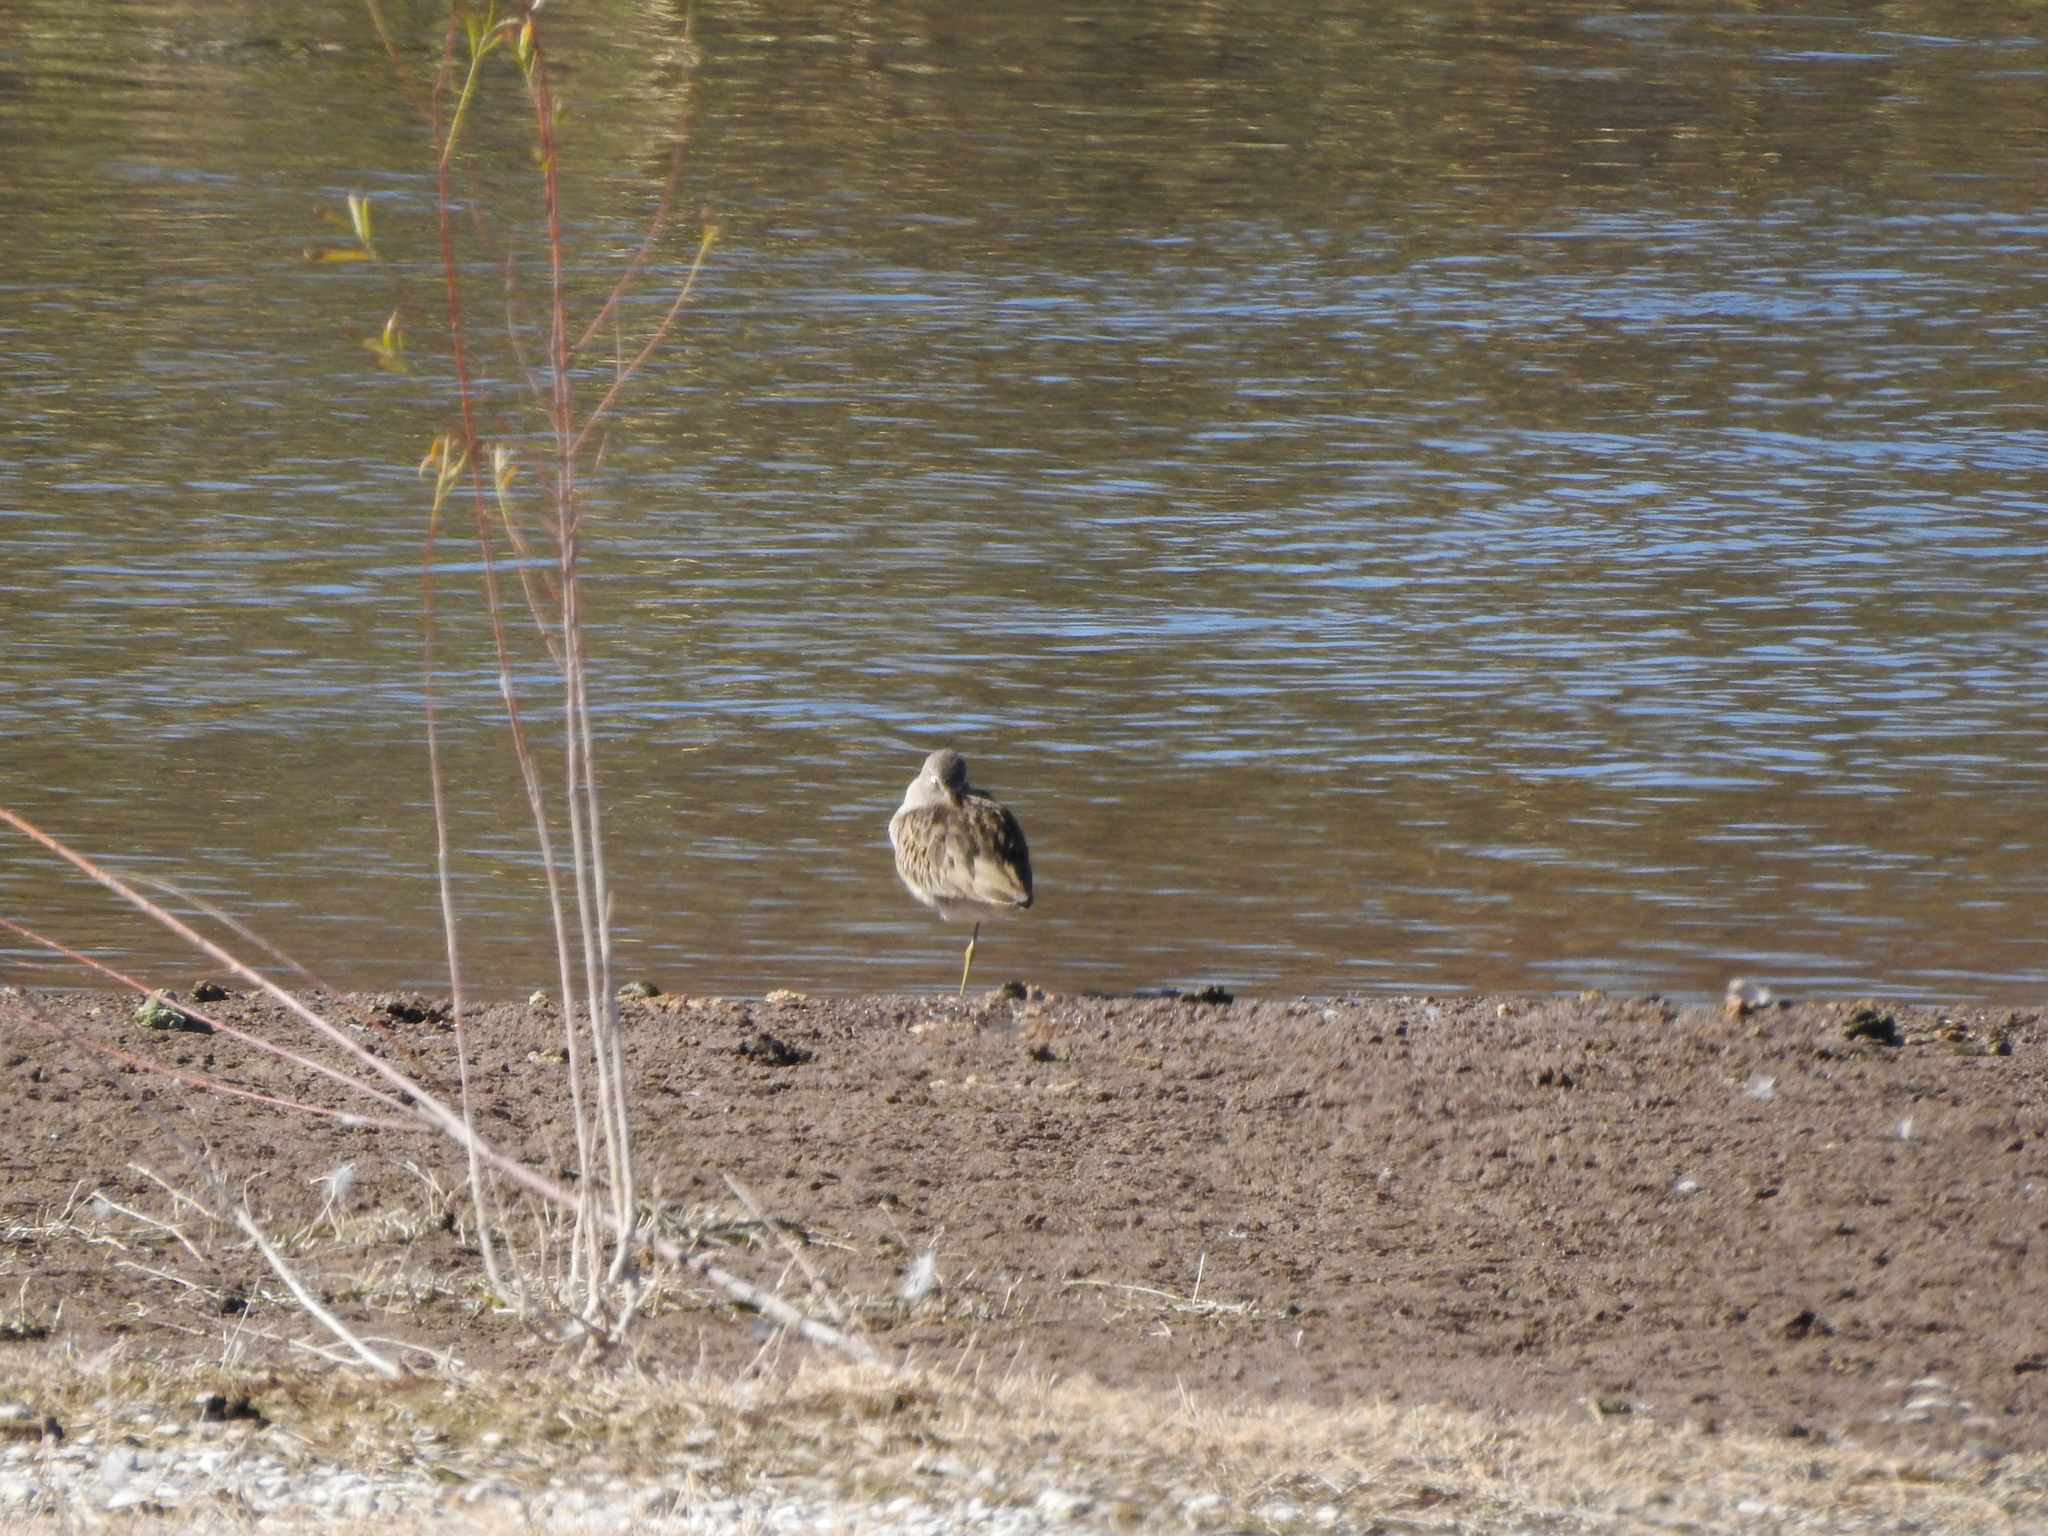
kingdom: Animalia
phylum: Chordata
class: Aves
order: Charadriiformes
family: Scolopacidae
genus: Tringa
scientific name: Tringa melanoleuca
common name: Greater yellowlegs
